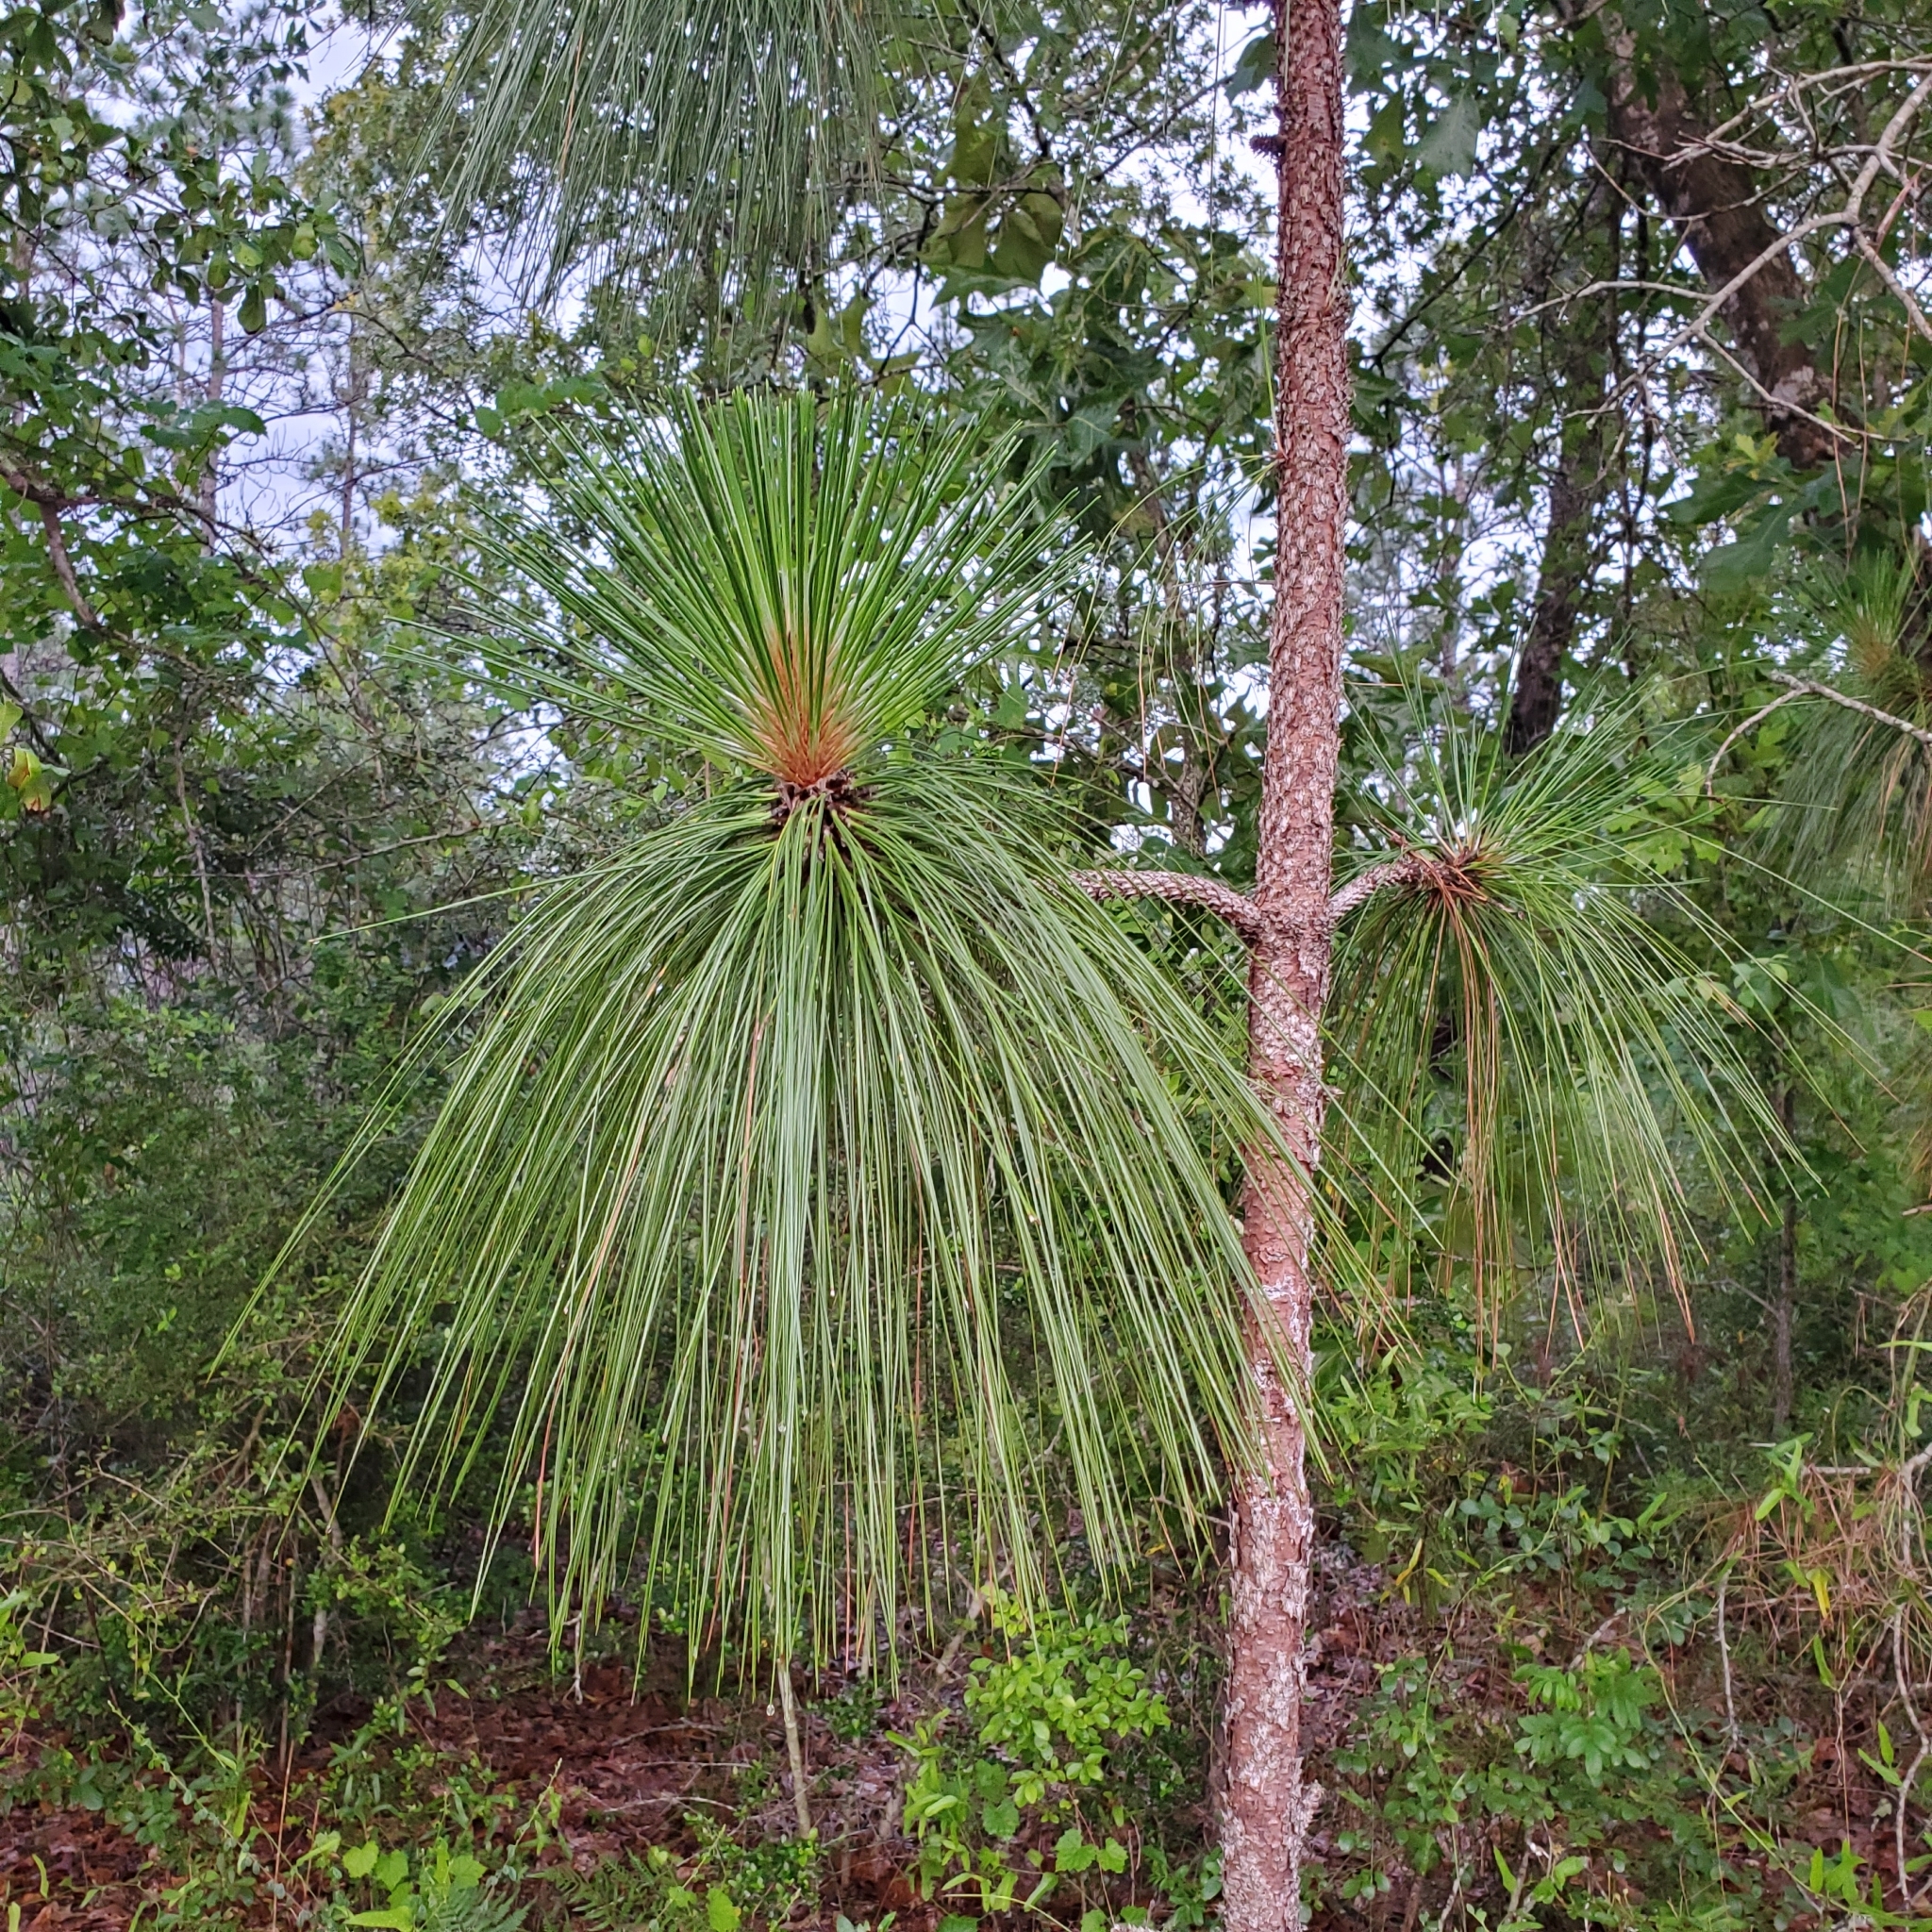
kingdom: Plantae
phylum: Tracheophyta
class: Pinopsida
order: Pinales
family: Pinaceae
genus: Pinus
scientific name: Pinus palustris
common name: Longleaf pine
